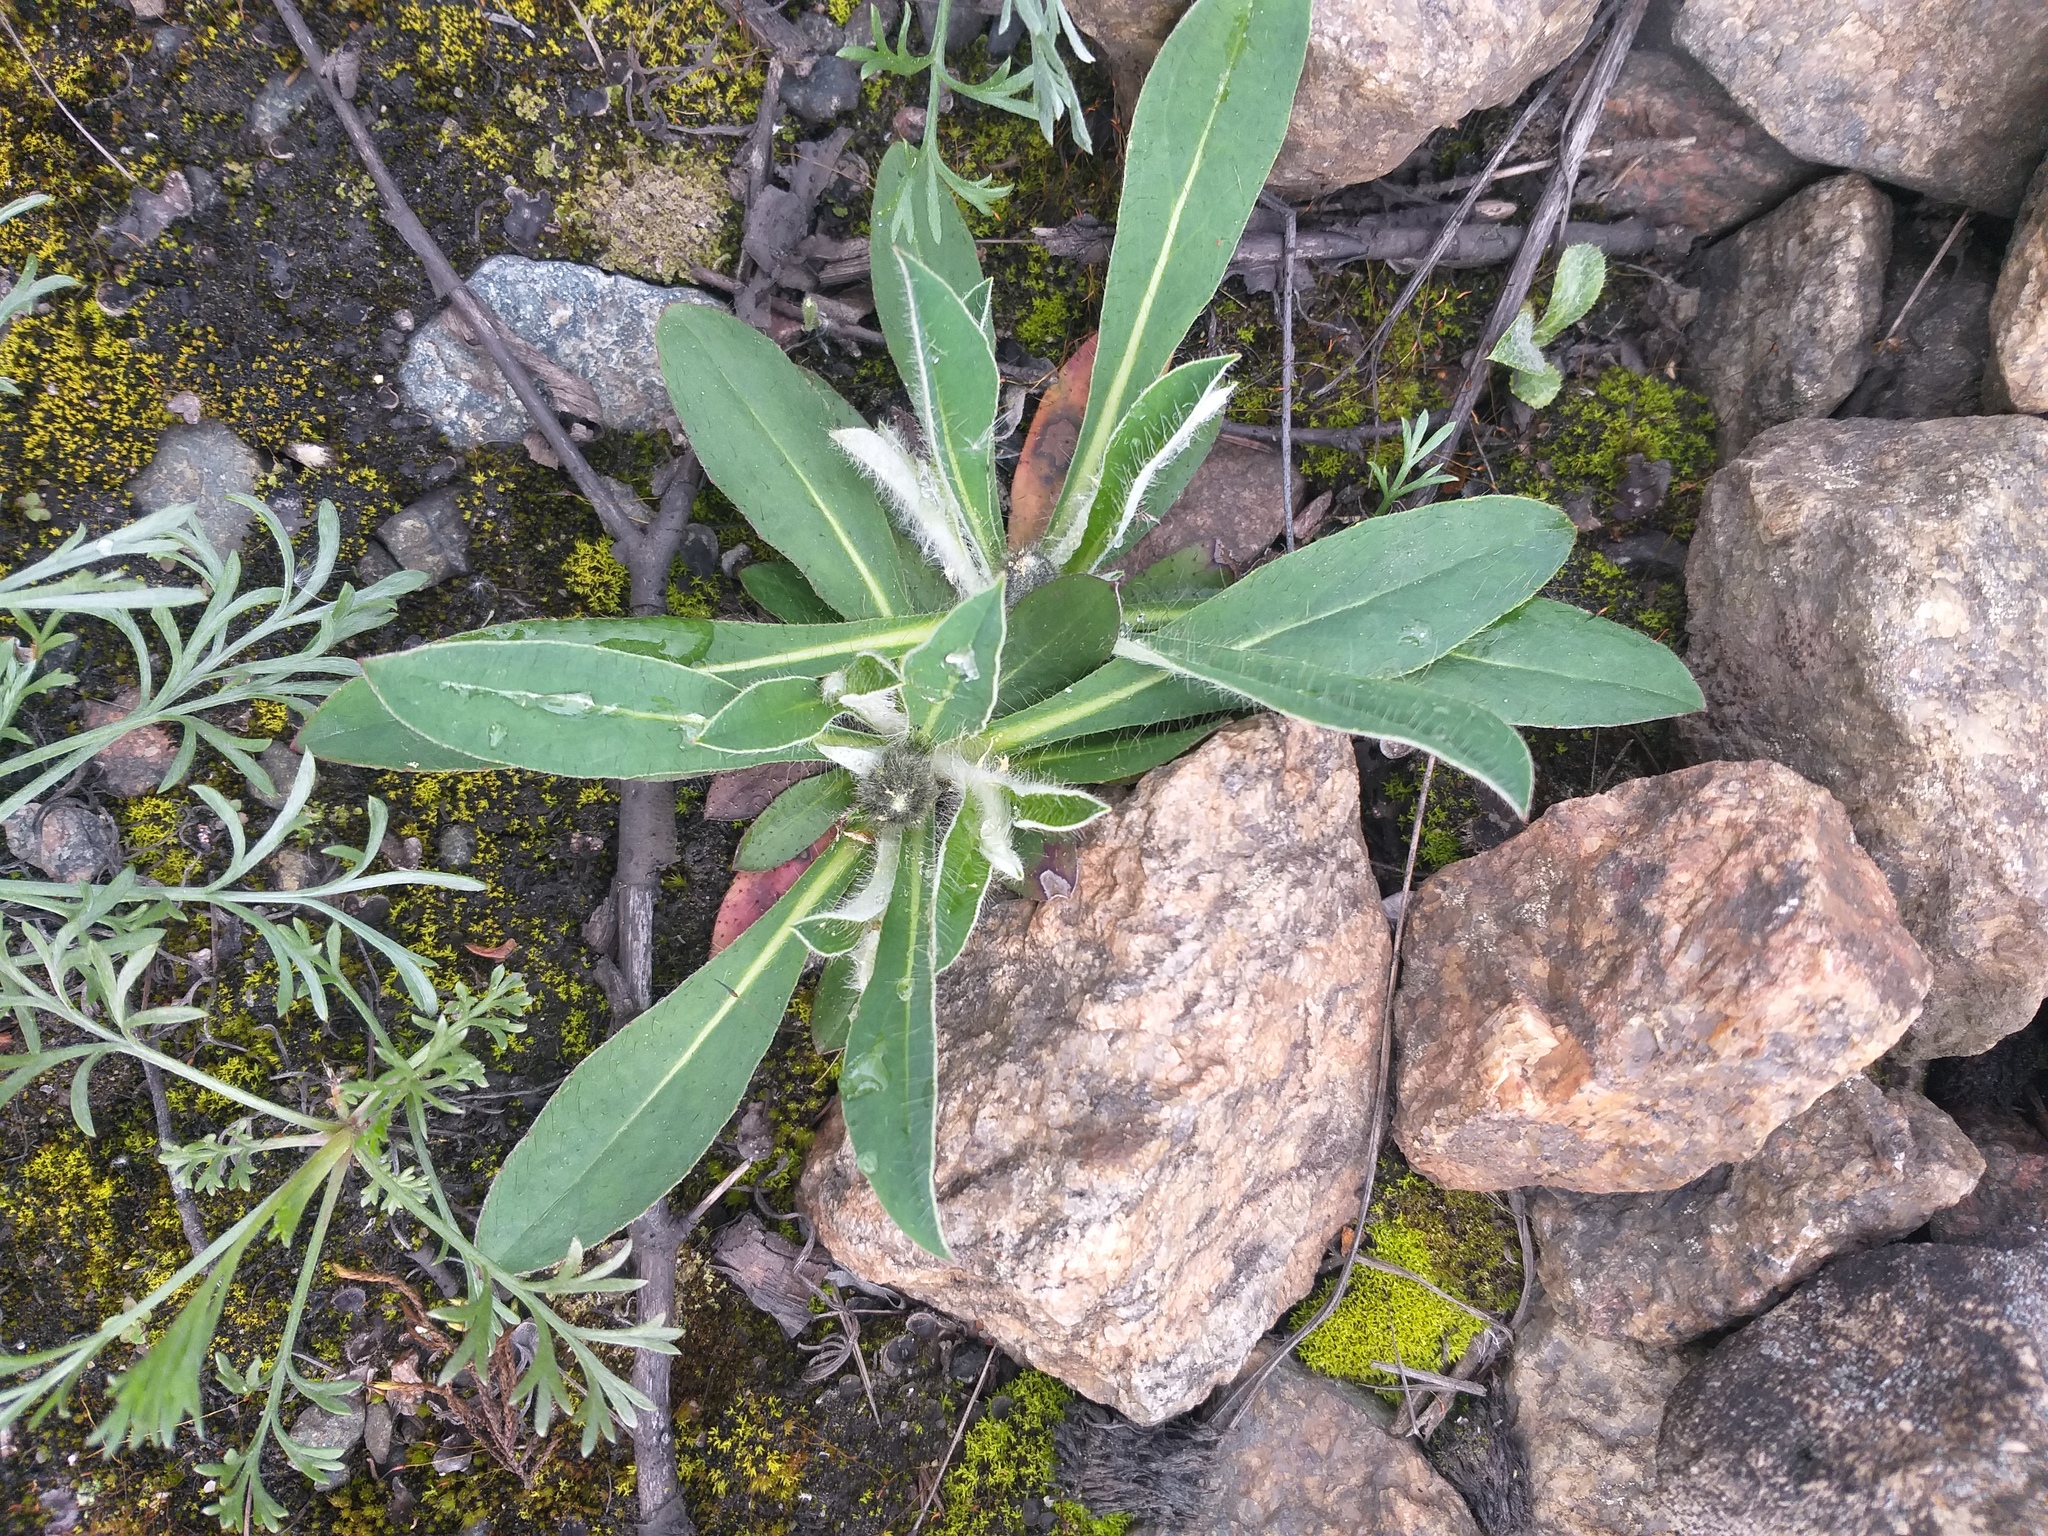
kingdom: Plantae
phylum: Tracheophyta
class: Magnoliopsida
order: Asterales
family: Asteraceae
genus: Pilosella
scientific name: Pilosella officinarum
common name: Mouse-ear hawkweed
